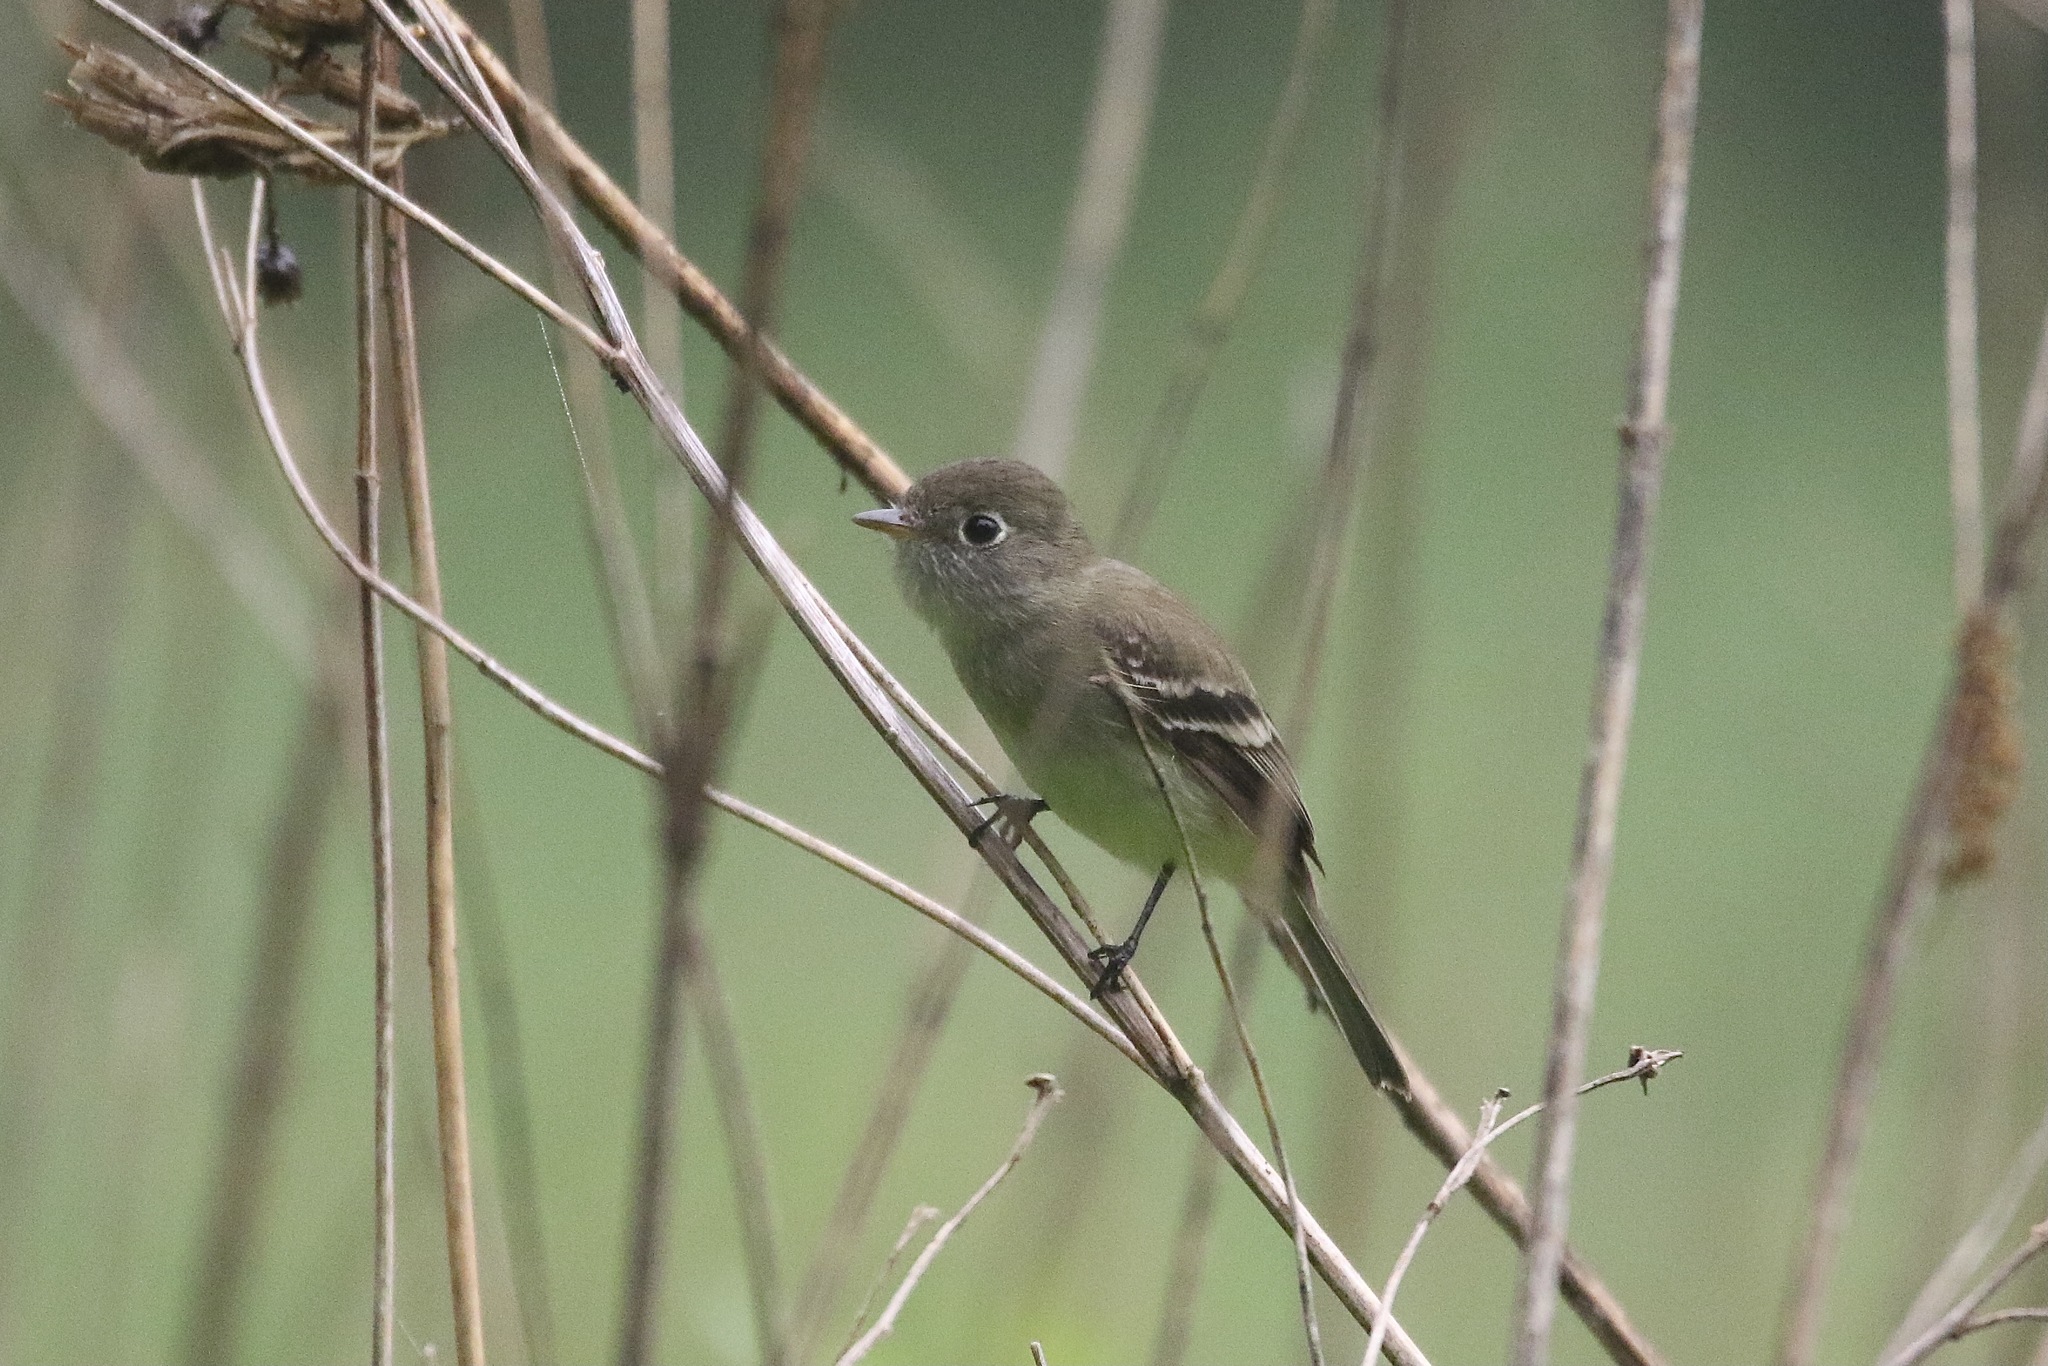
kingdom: Animalia
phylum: Chordata
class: Aves
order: Passeriformes
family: Tyrannidae
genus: Empidonax
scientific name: Empidonax minimus
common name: Least flycatcher
